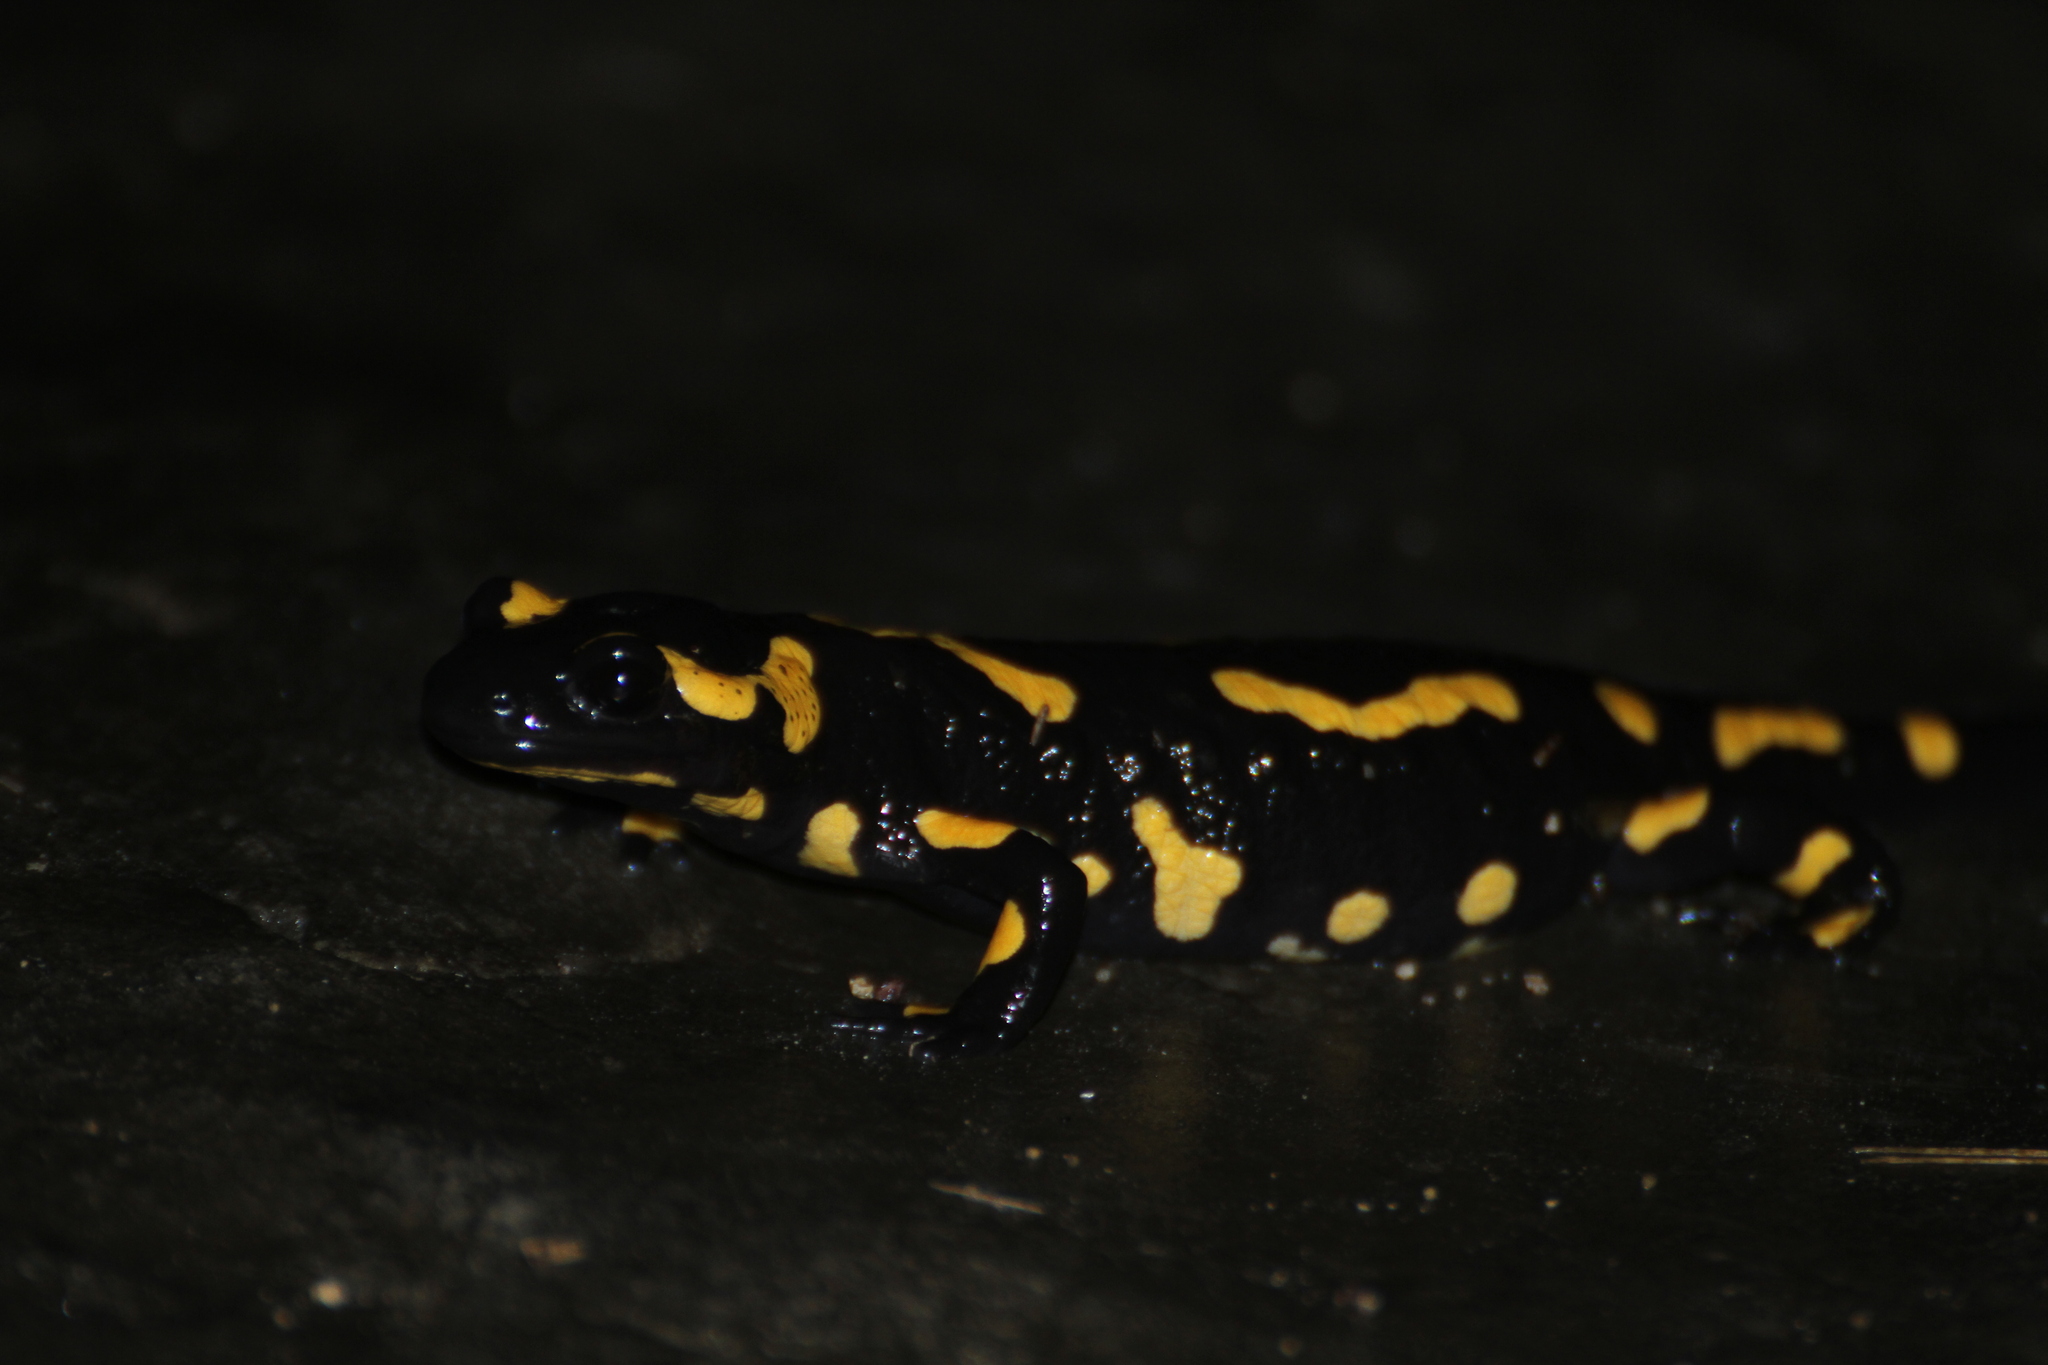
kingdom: Animalia
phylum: Chordata
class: Amphibia
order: Caudata
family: Salamandridae
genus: Salamandra
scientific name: Salamandra salamandra
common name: Fire salamander
